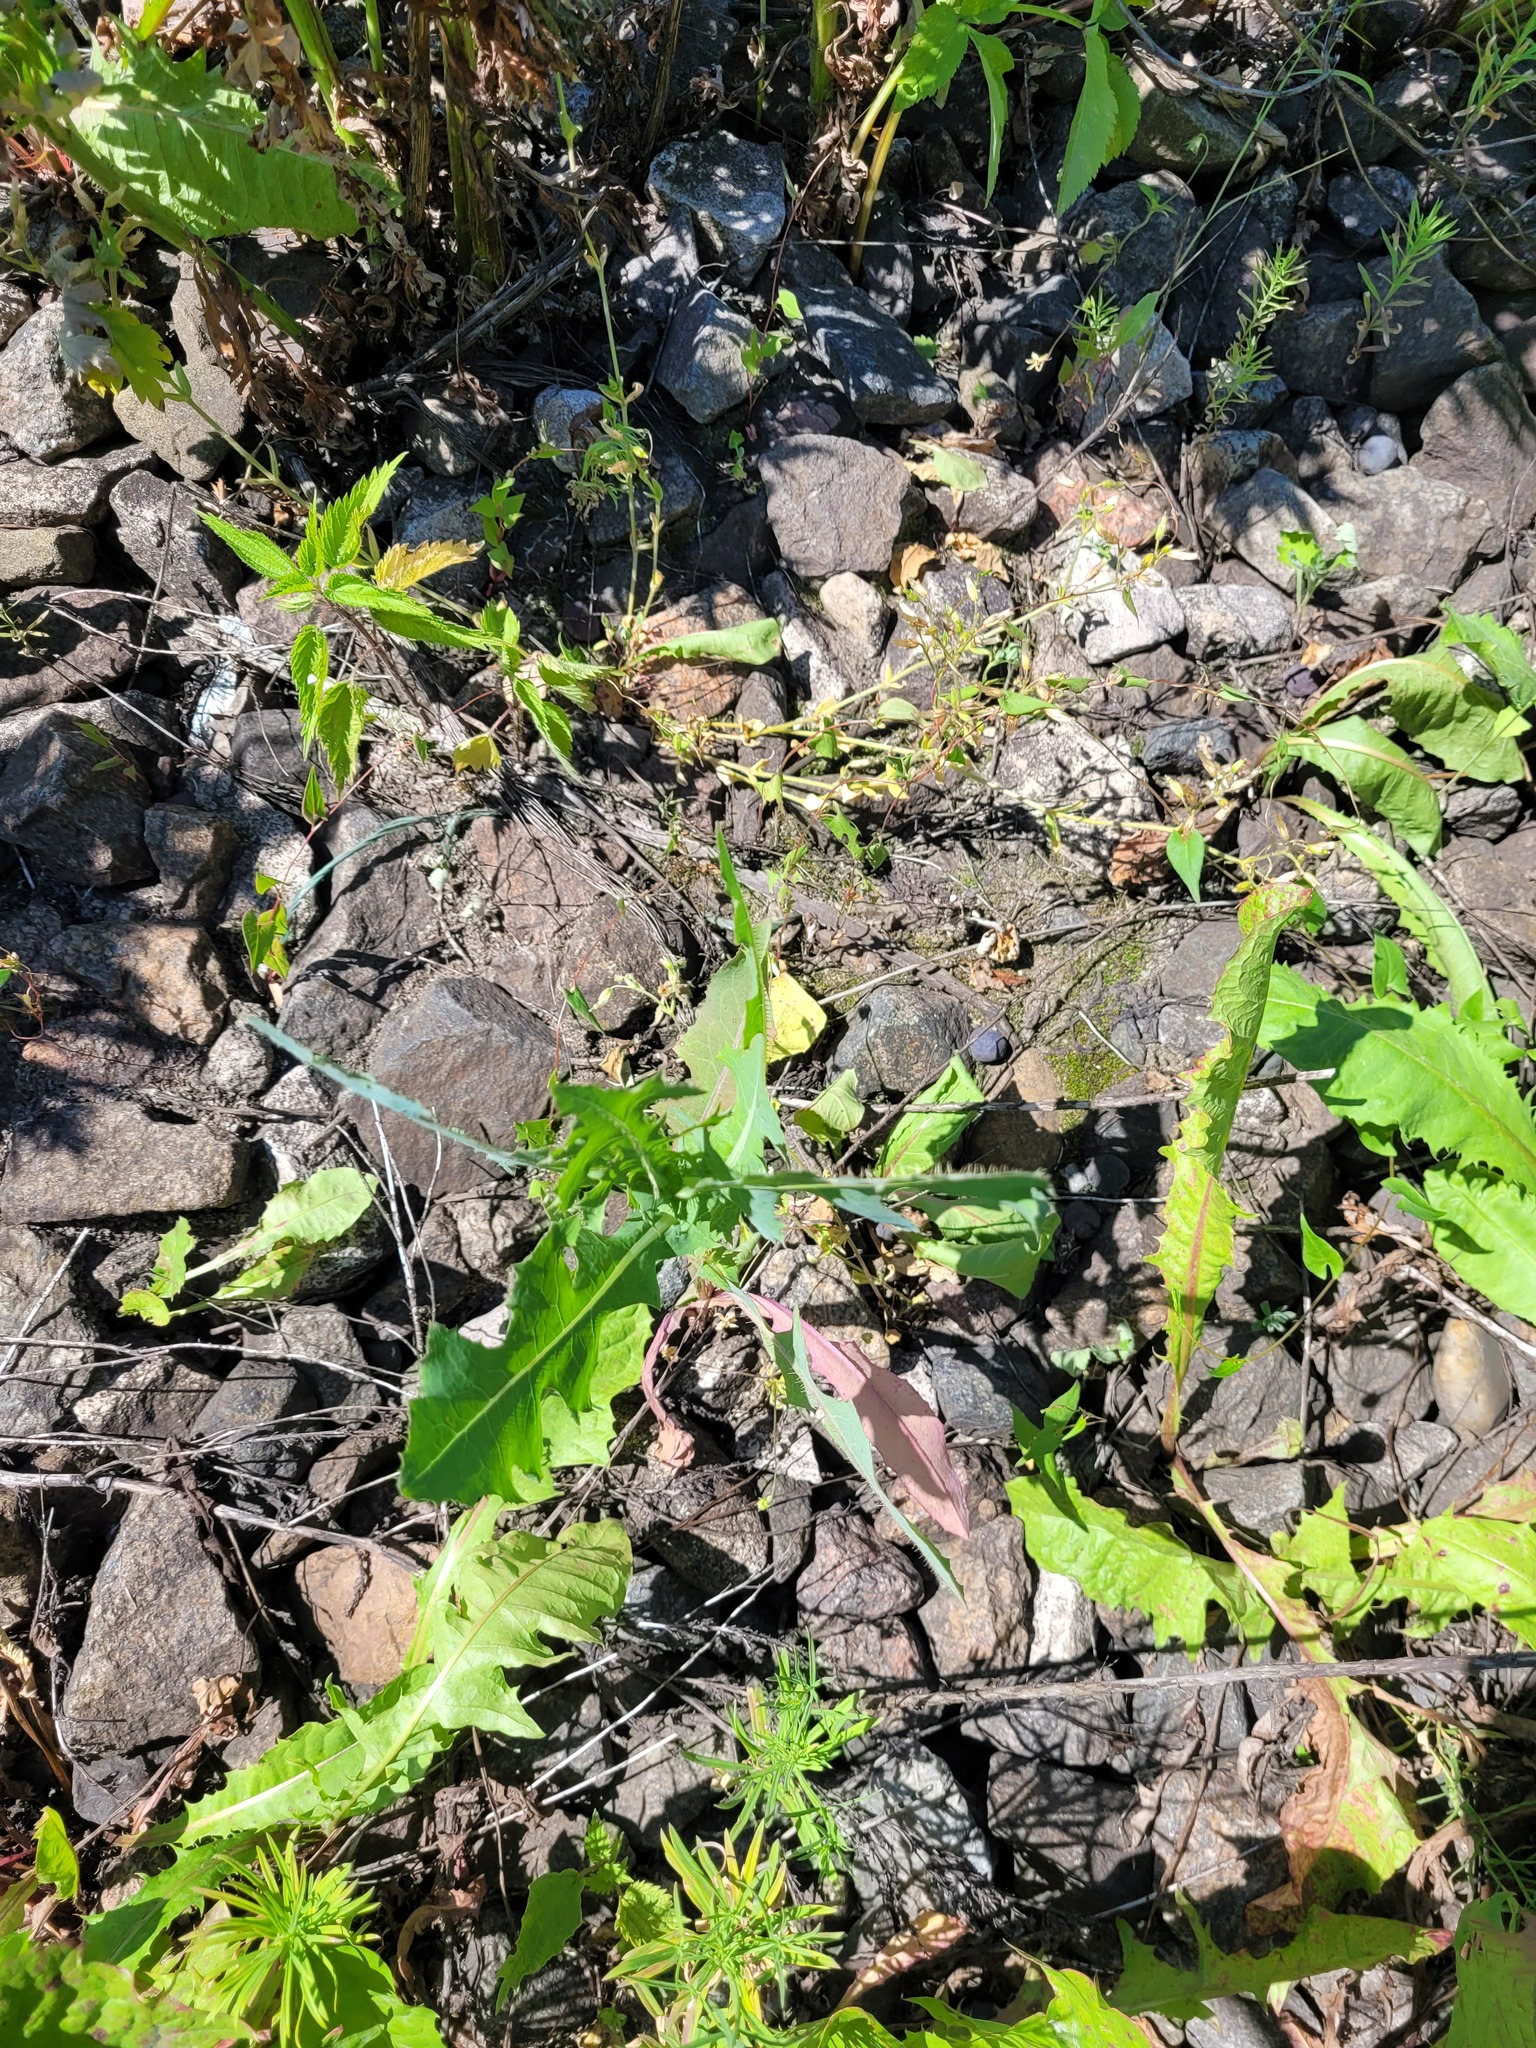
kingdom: Plantae
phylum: Tracheophyta
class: Magnoliopsida
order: Asterales
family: Asteraceae
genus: Lactuca
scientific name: Lactuca serriola
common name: Prickly lettuce
